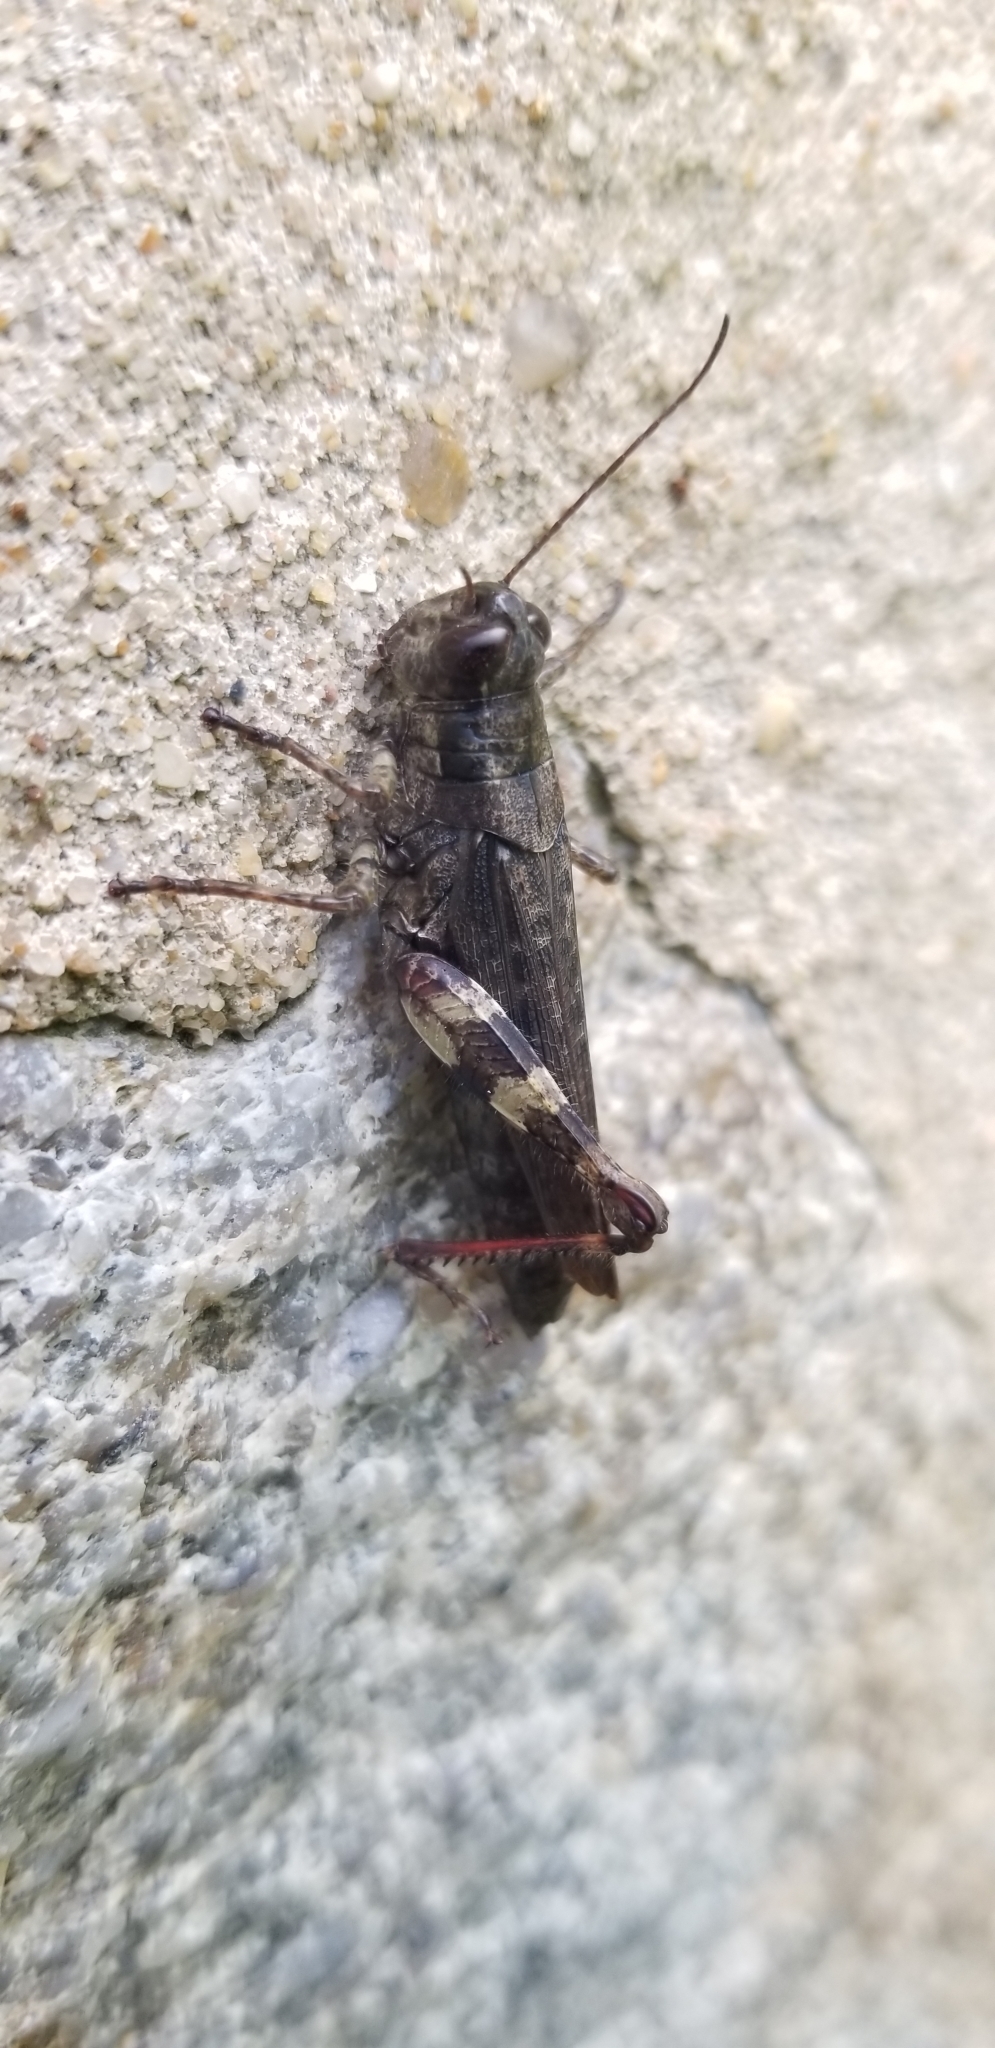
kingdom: Animalia
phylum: Arthropoda
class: Insecta
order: Orthoptera
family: Acrididae
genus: Melanoplus
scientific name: Melanoplus punctulatus
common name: Pine-tree spur-throat grasshopper
